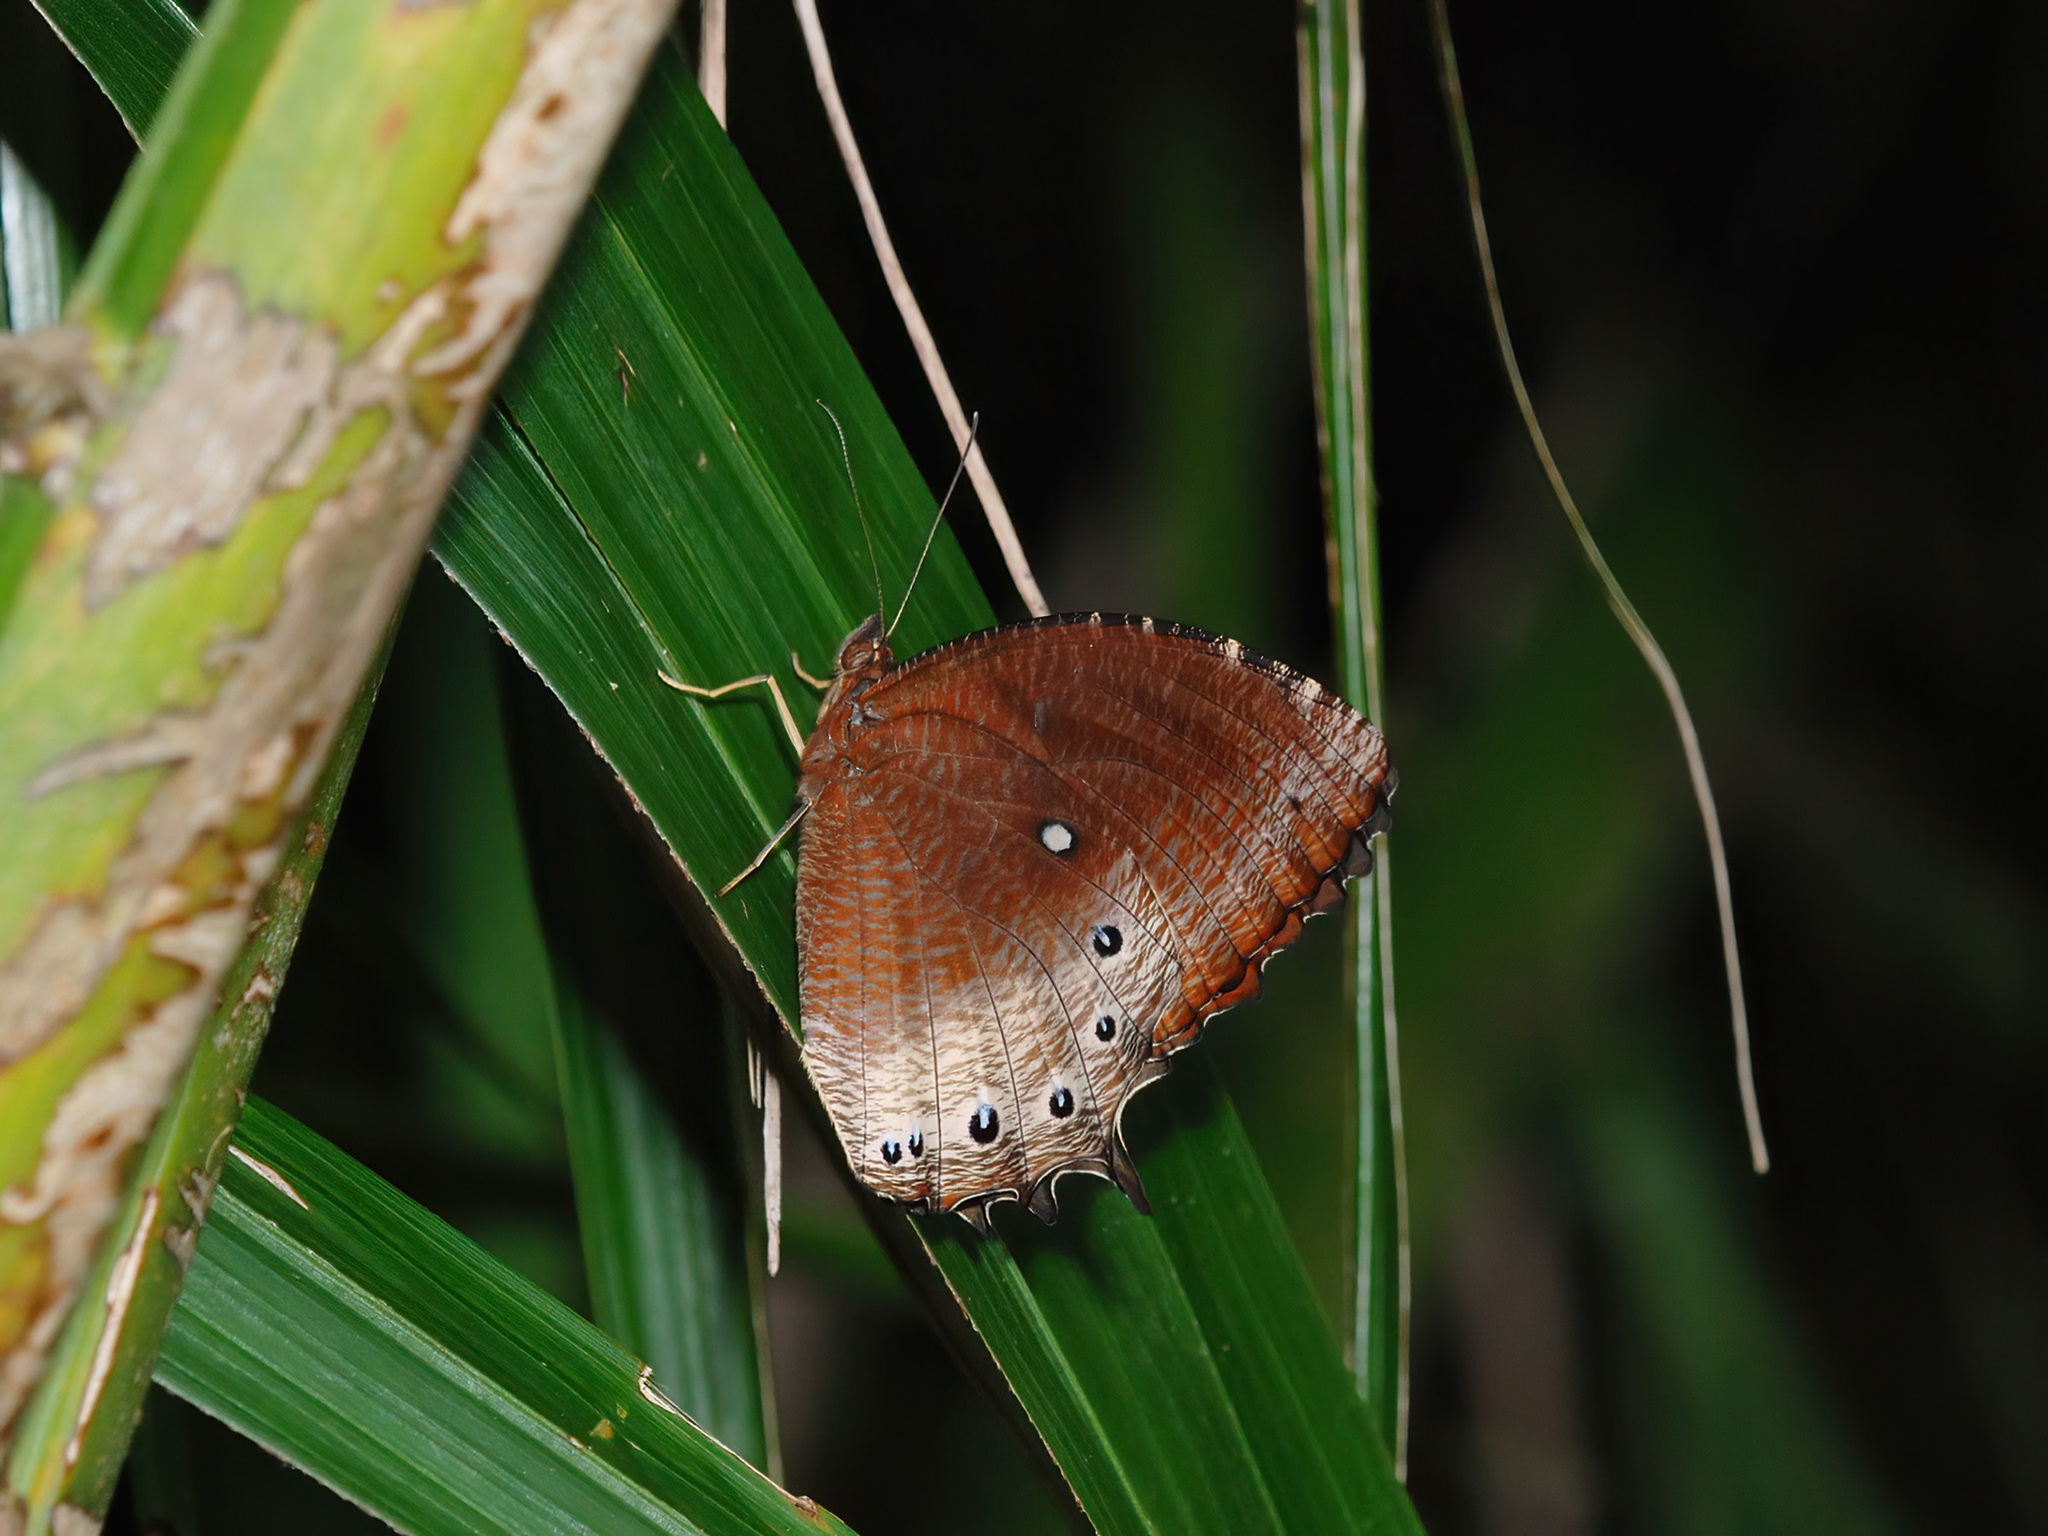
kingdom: Animalia
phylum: Arthropoda
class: Insecta
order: Lepidoptera
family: Nymphalidae
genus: Elymnias
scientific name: Elymnias panthera
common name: Tawny palmfly
